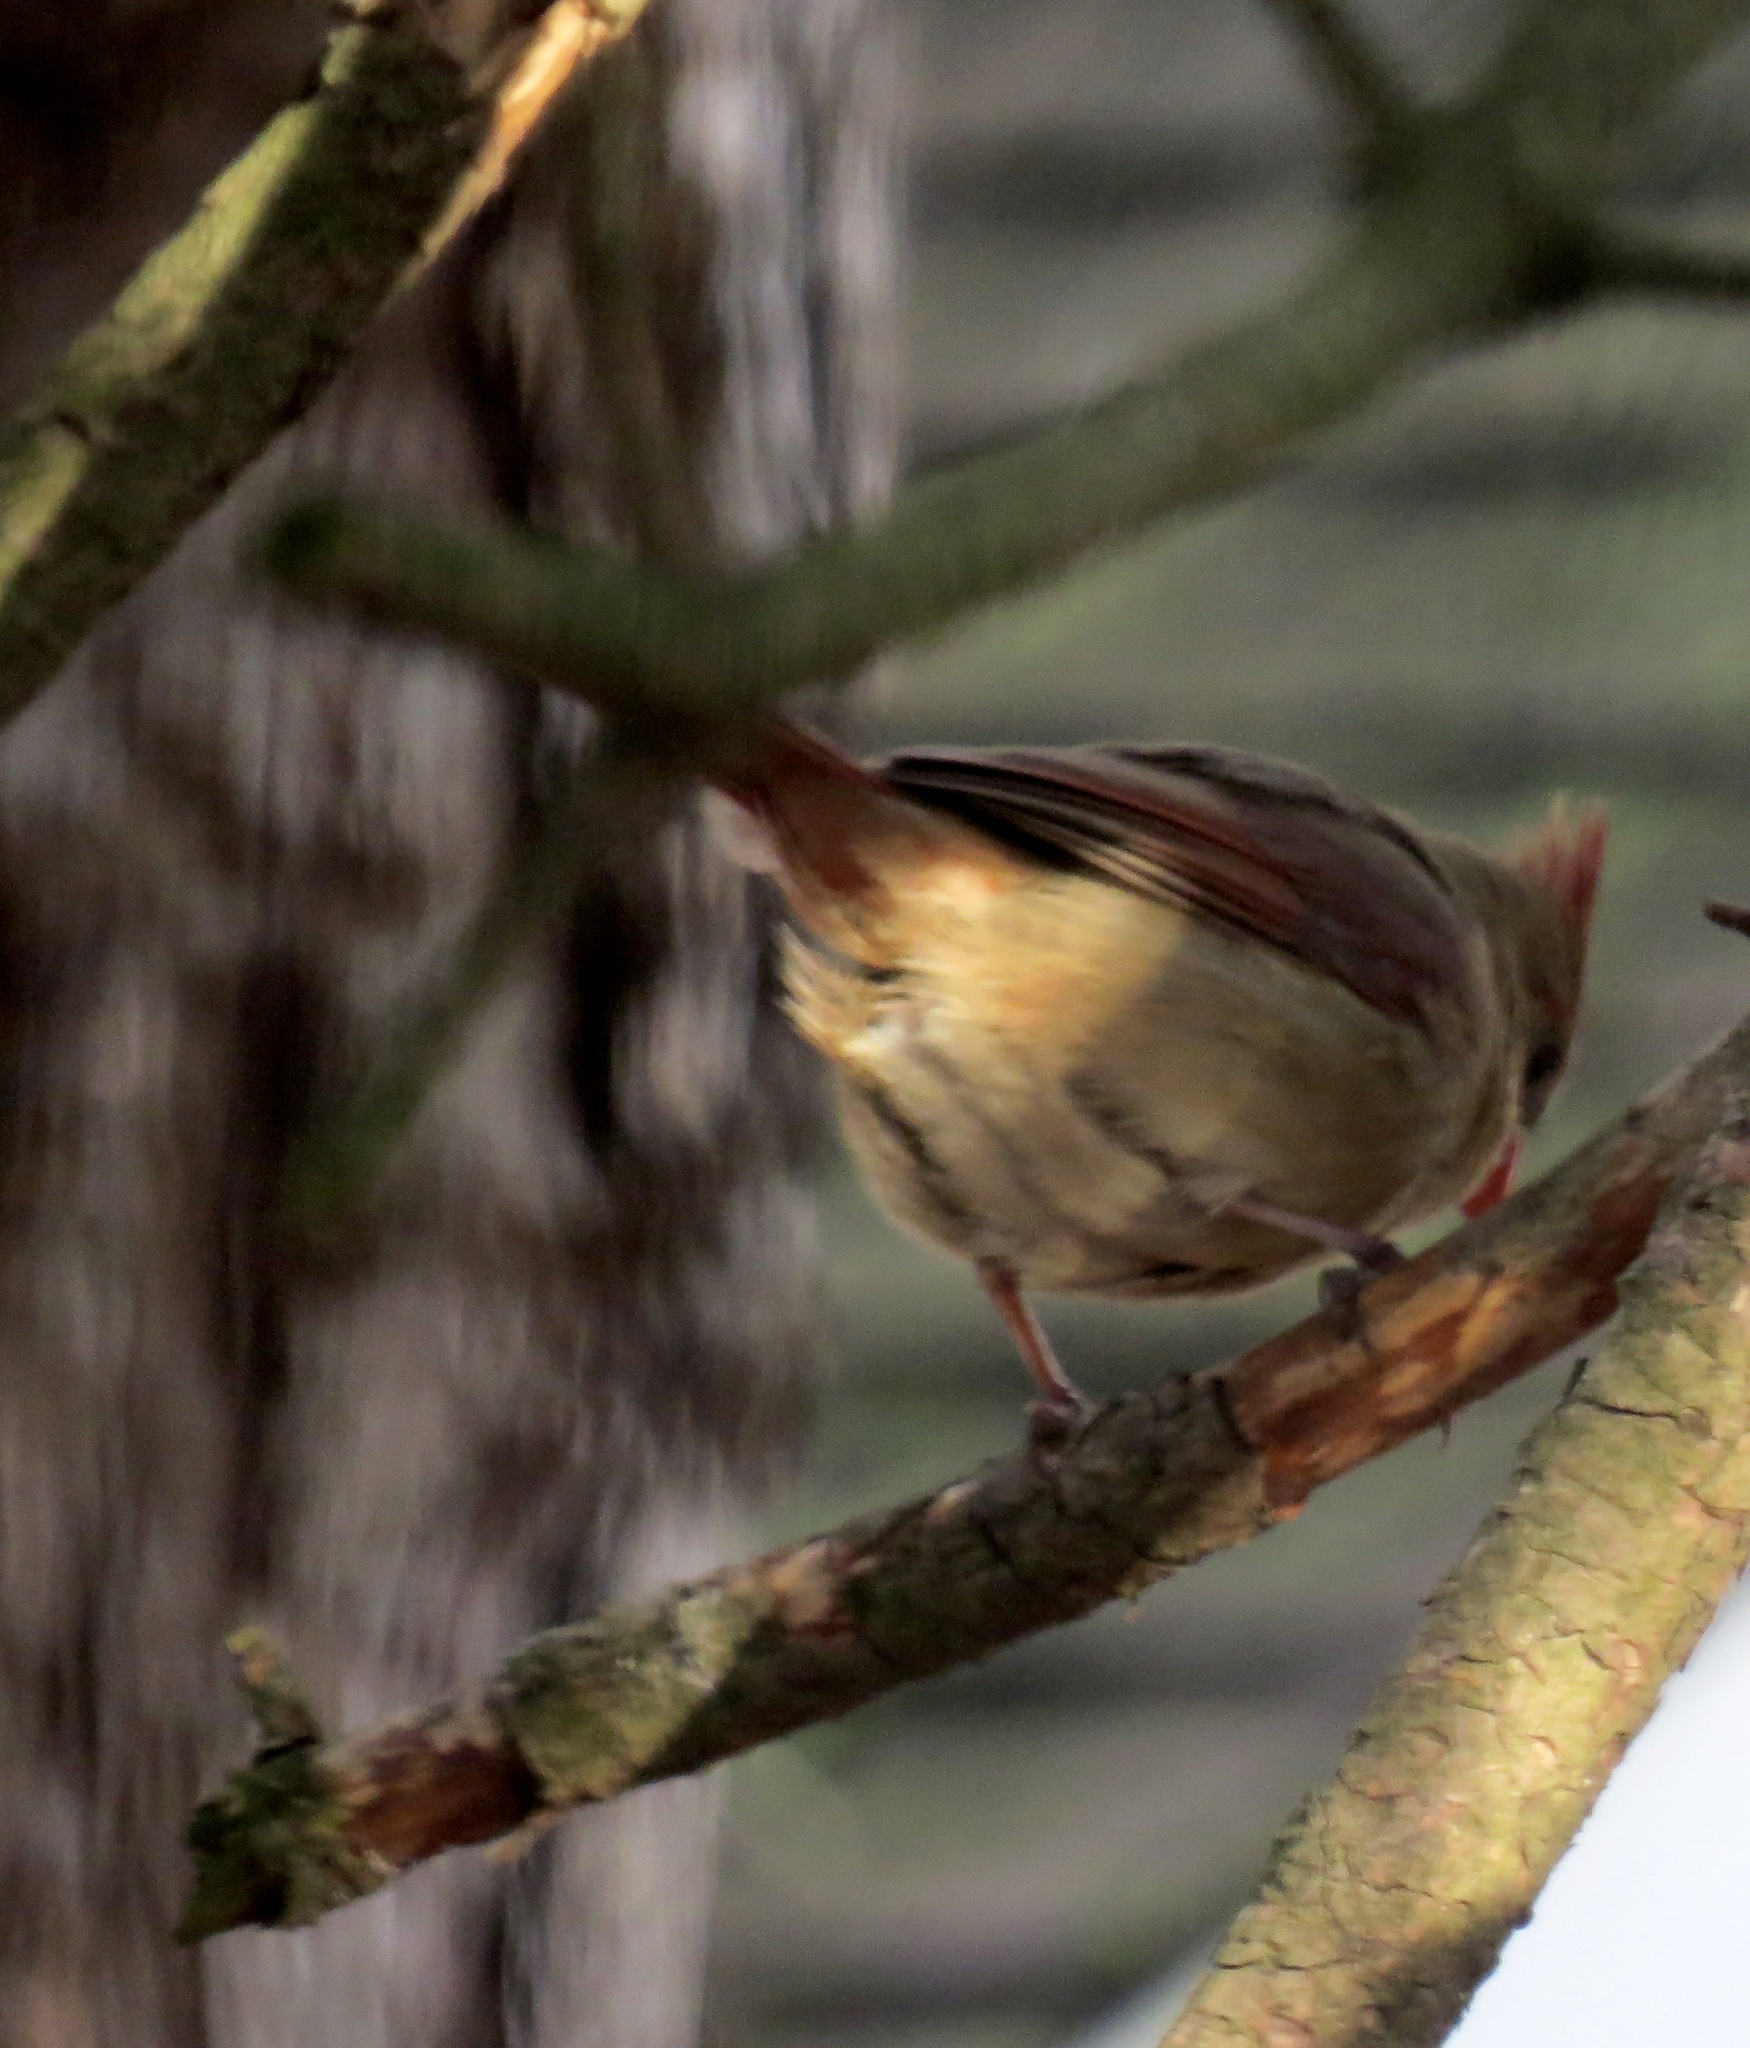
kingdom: Animalia
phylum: Chordata
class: Aves
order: Passeriformes
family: Cardinalidae
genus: Cardinalis
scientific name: Cardinalis cardinalis
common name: Northern cardinal
